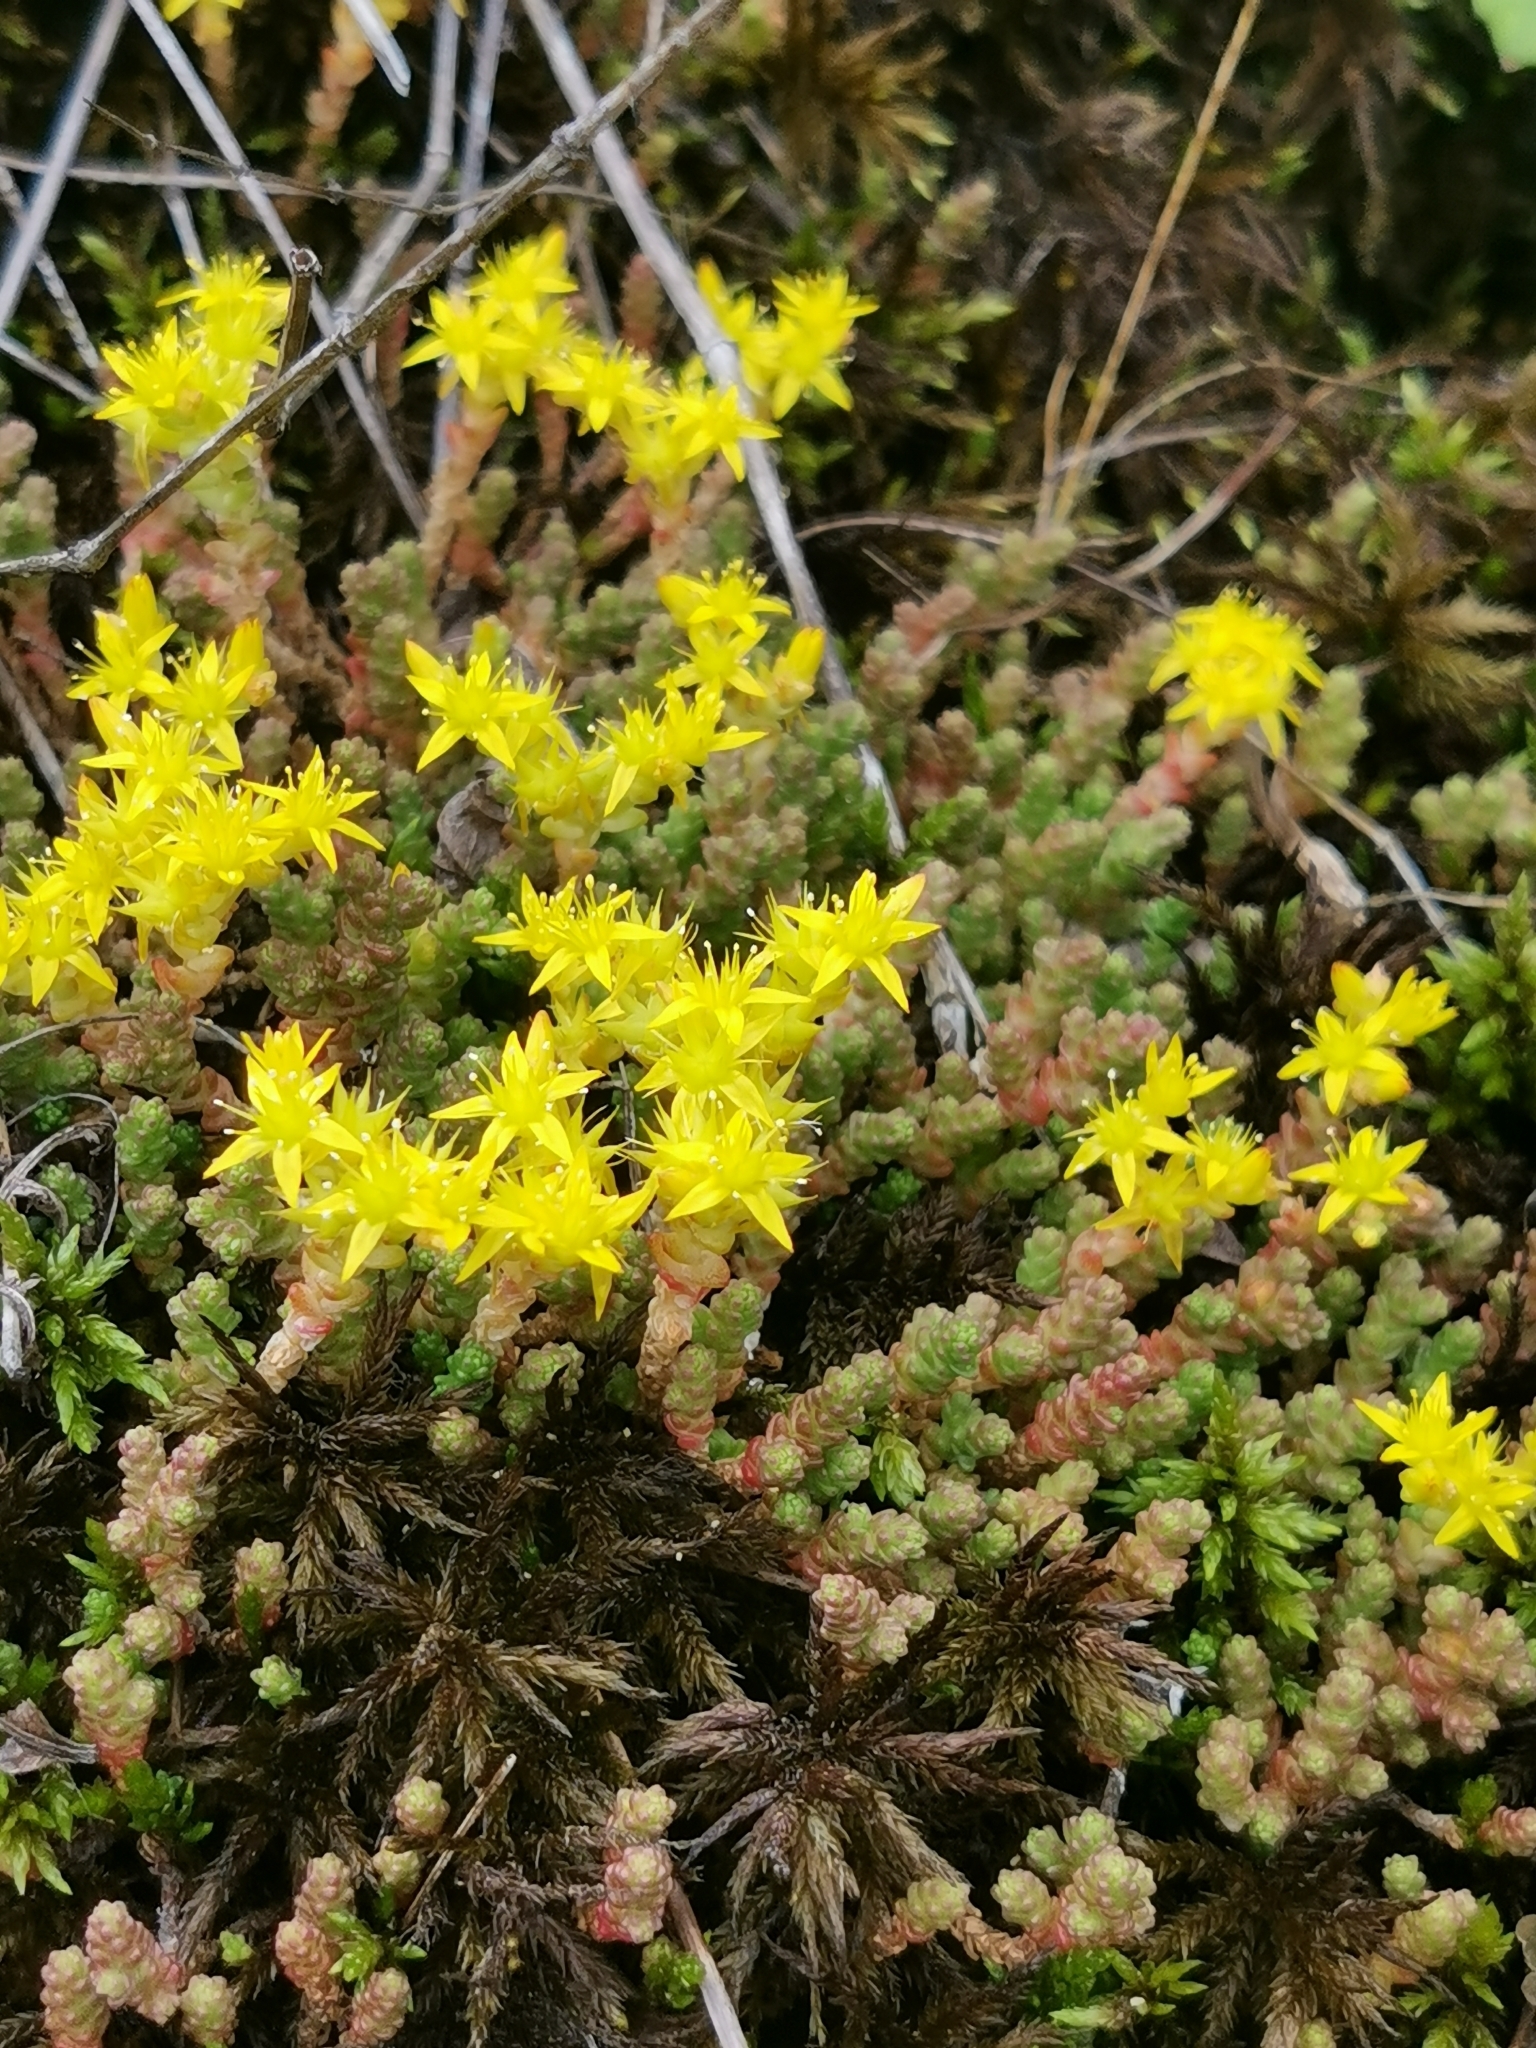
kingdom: Plantae
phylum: Tracheophyta
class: Magnoliopsida
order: Saxifragales
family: Crassulaceae
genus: Sedum
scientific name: Sedum acre
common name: Biting stonecrop
